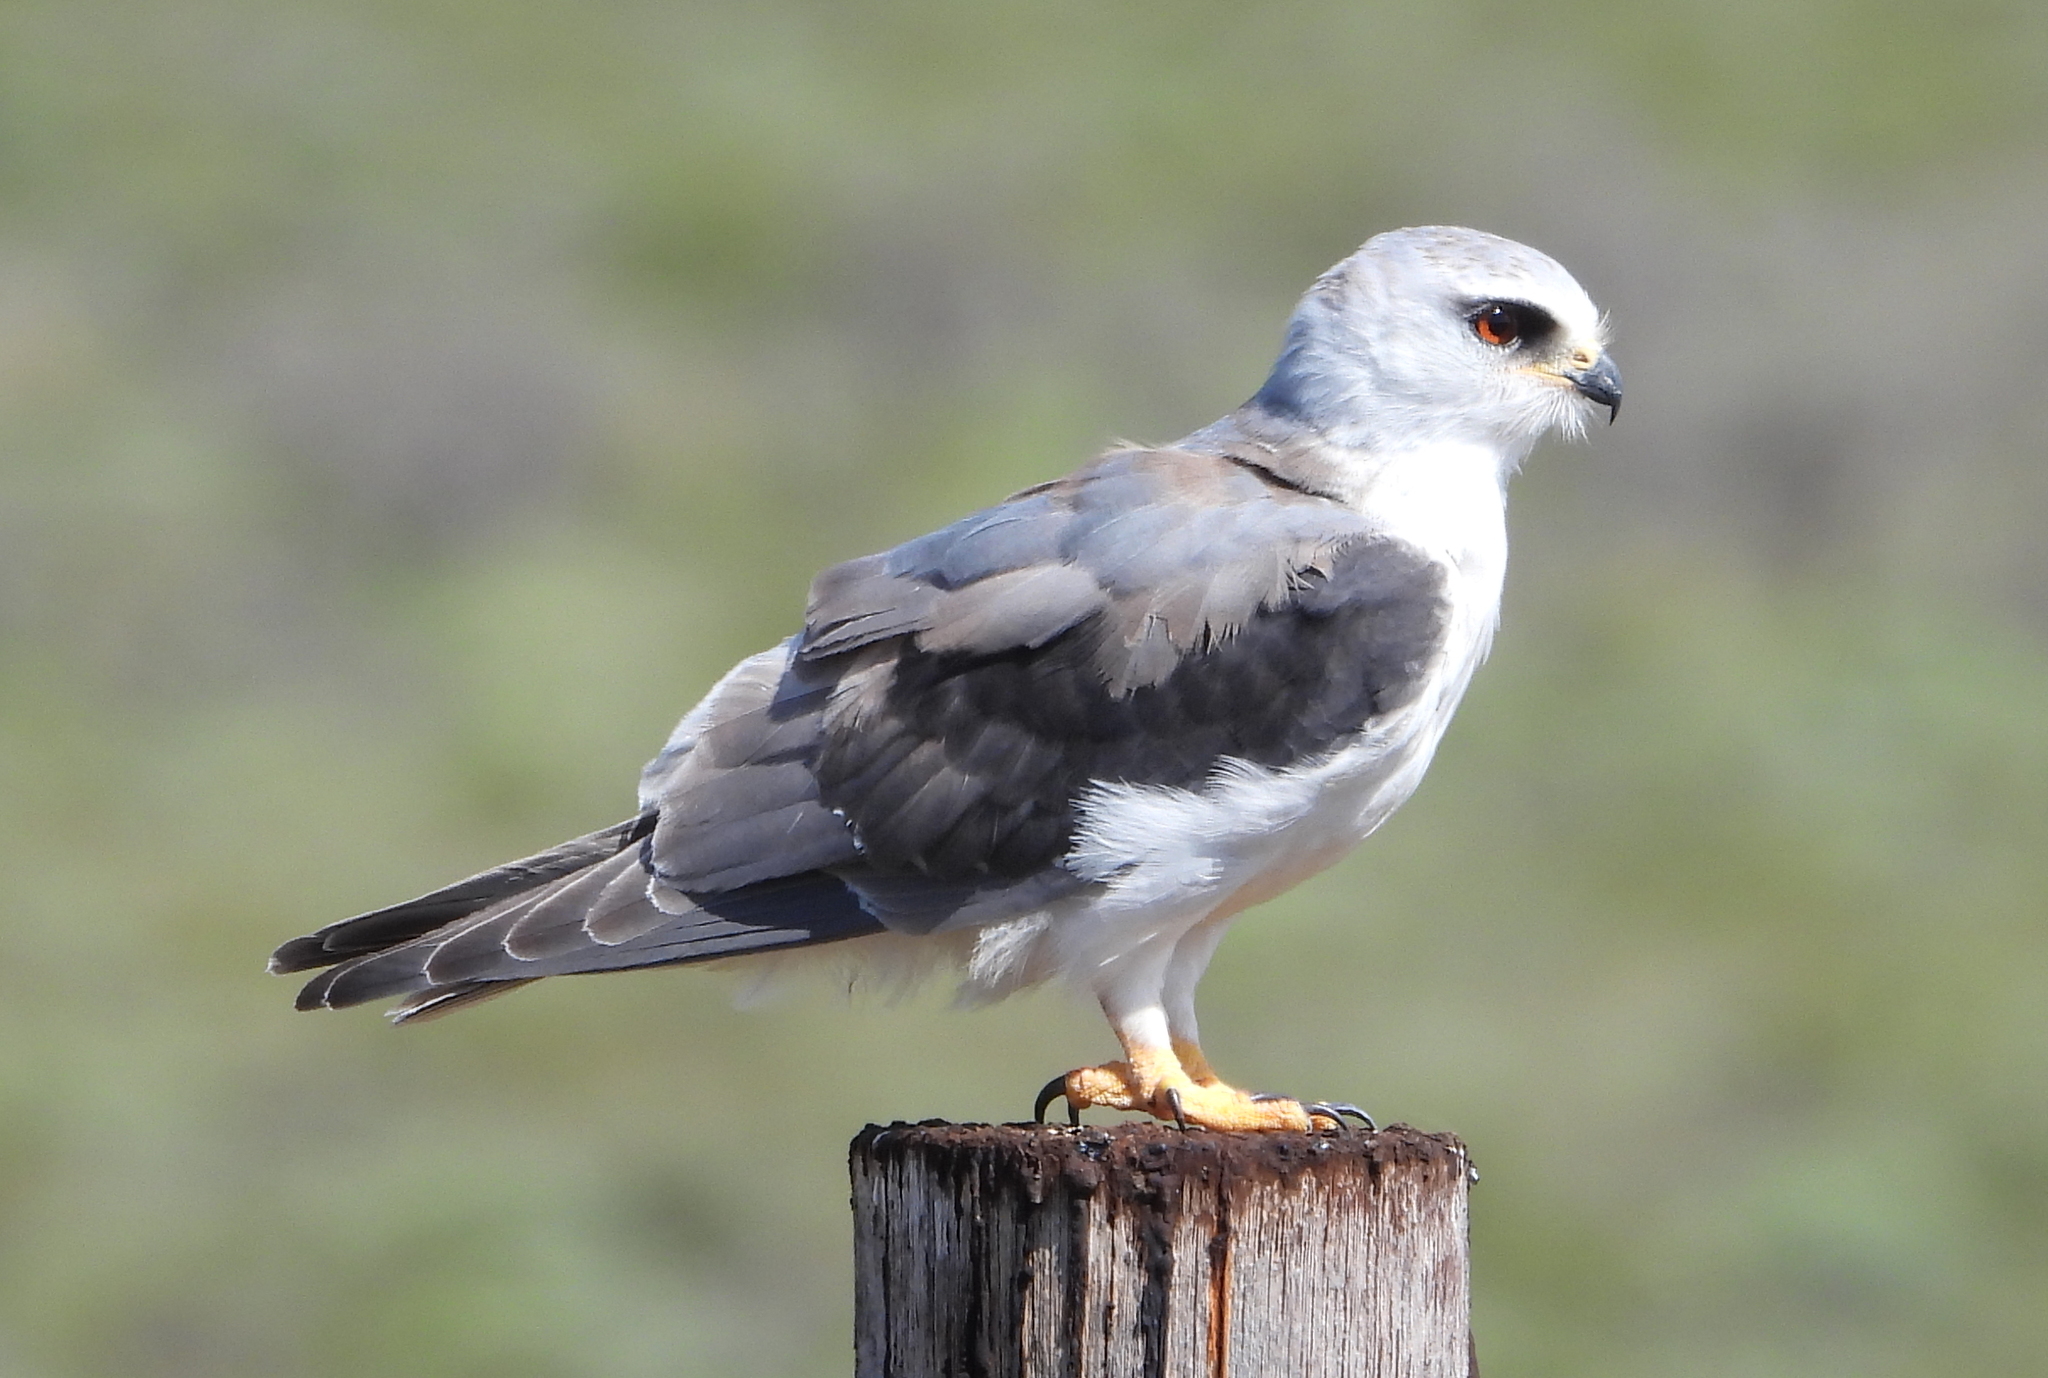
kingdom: Animalia
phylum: Chordata
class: Aves
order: Accipitriformes
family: Accipitridae
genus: Elanus
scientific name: Elanus caeruleus
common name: Black-winged kite
